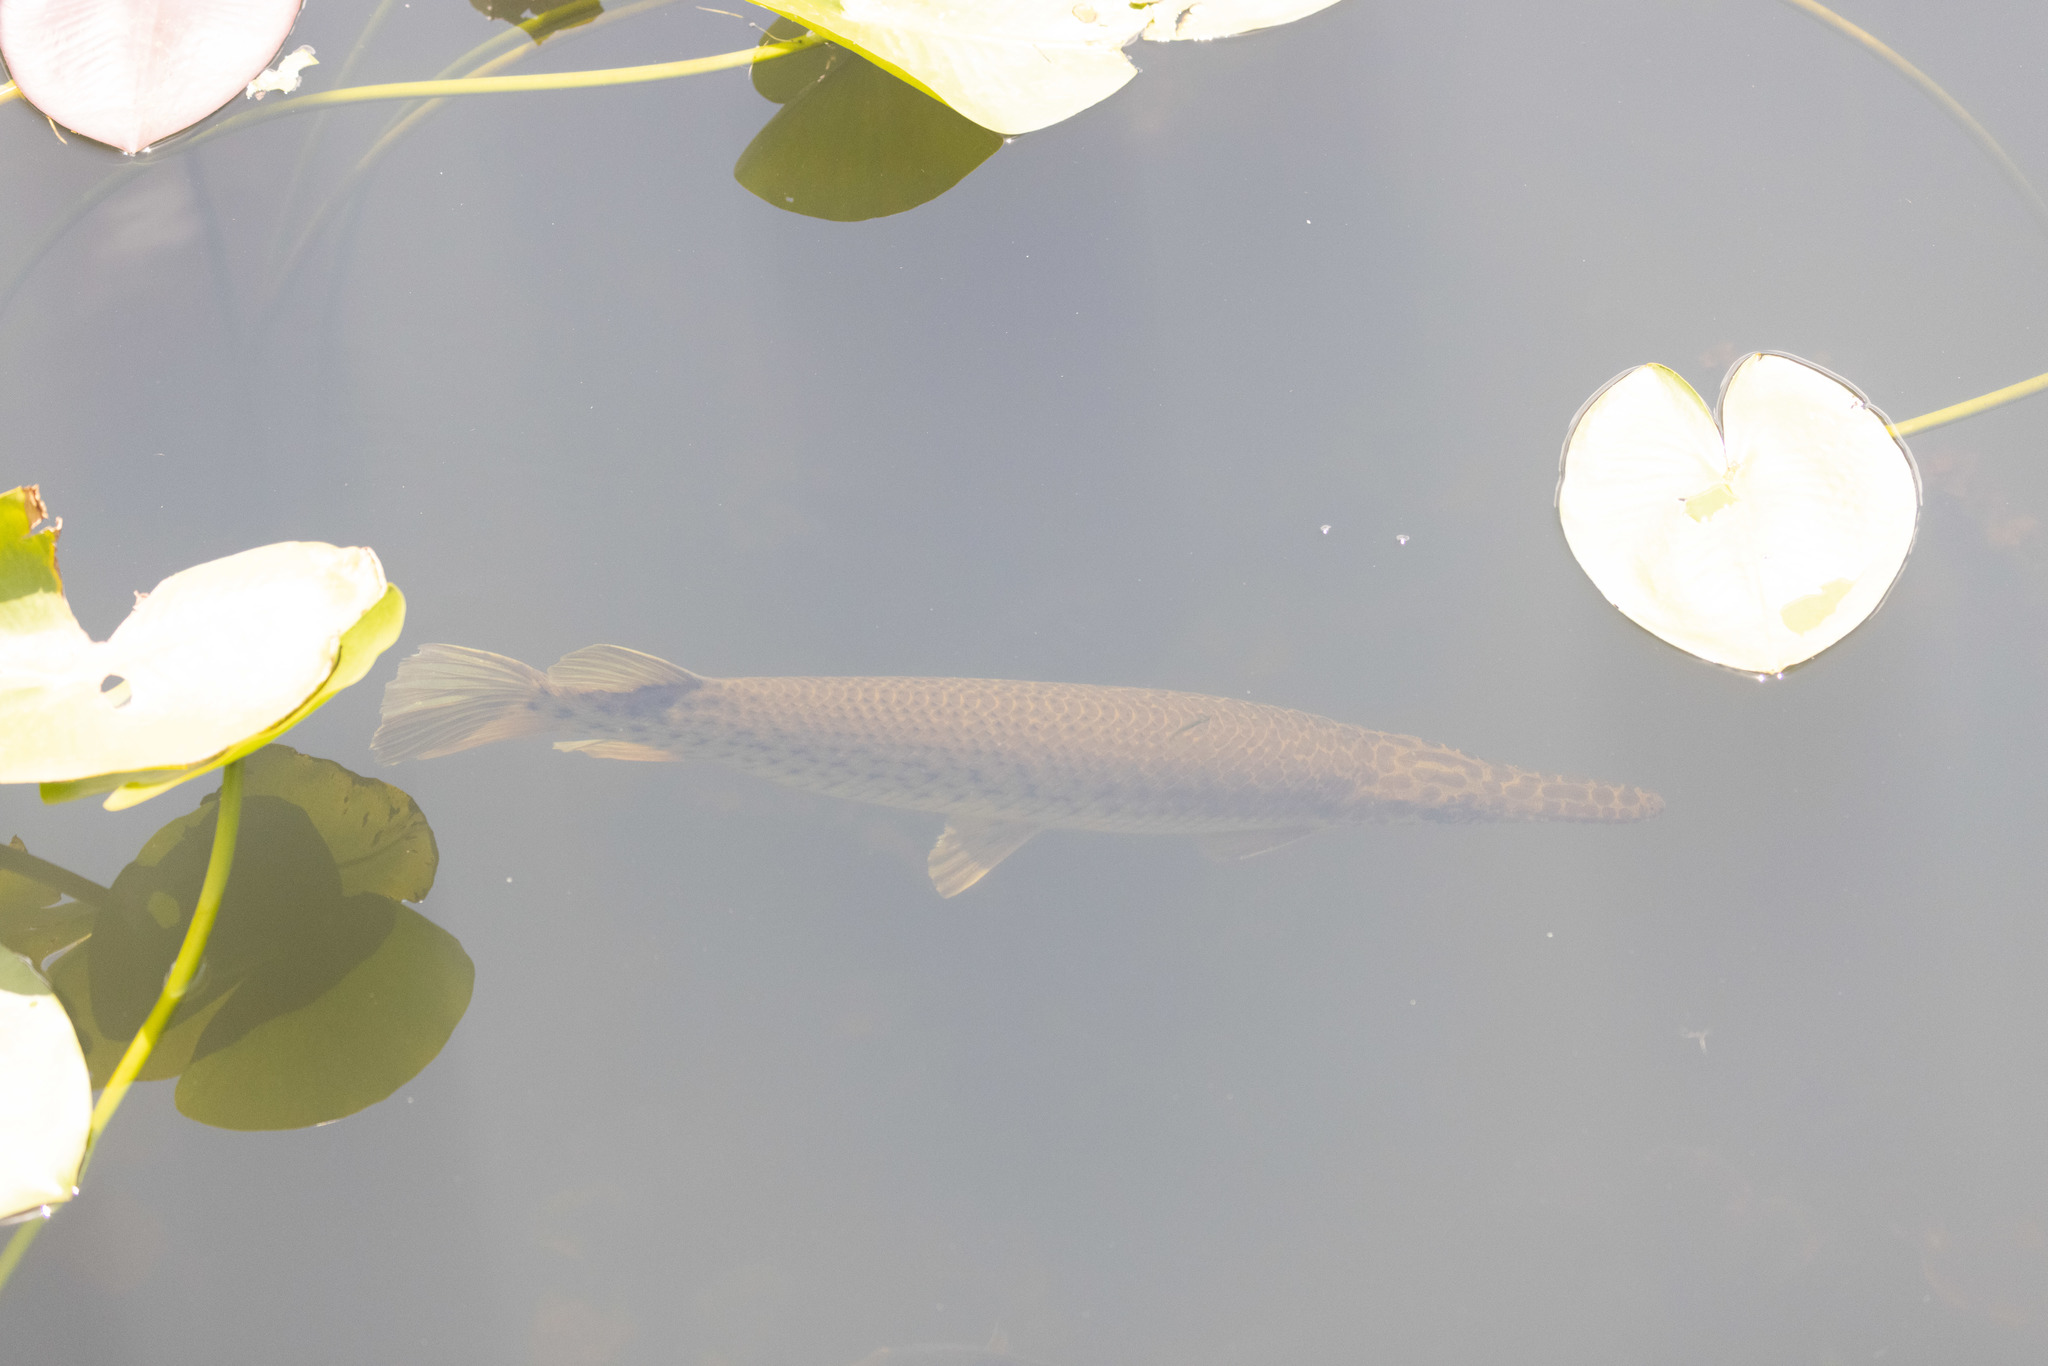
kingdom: Animalia
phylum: Chordata
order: Lepisosteiformes
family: Lepisosteidae
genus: Lepisosteus
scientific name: Lepisosteus platyrhincus
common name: Florida gar
